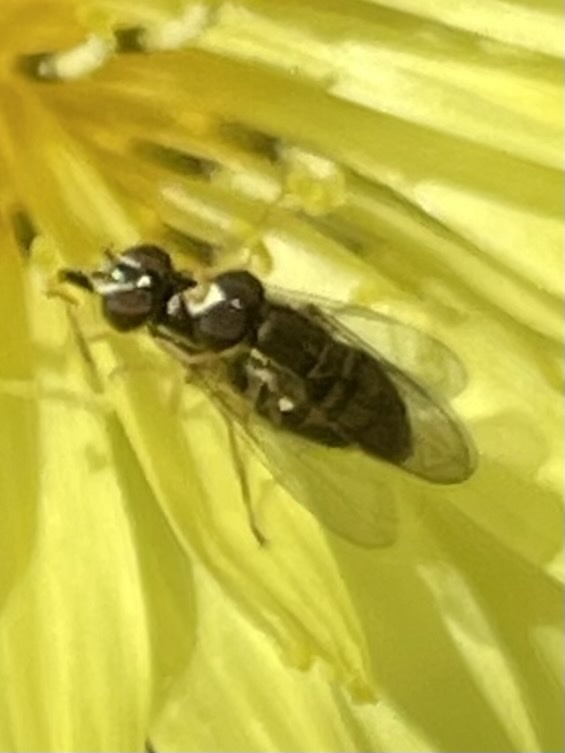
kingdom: Animalia
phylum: Arthropoda
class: Insecta
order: Diptera
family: Syrphidae
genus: Toxomerus
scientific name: Toxomerus marginatus
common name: Syrphid fly
